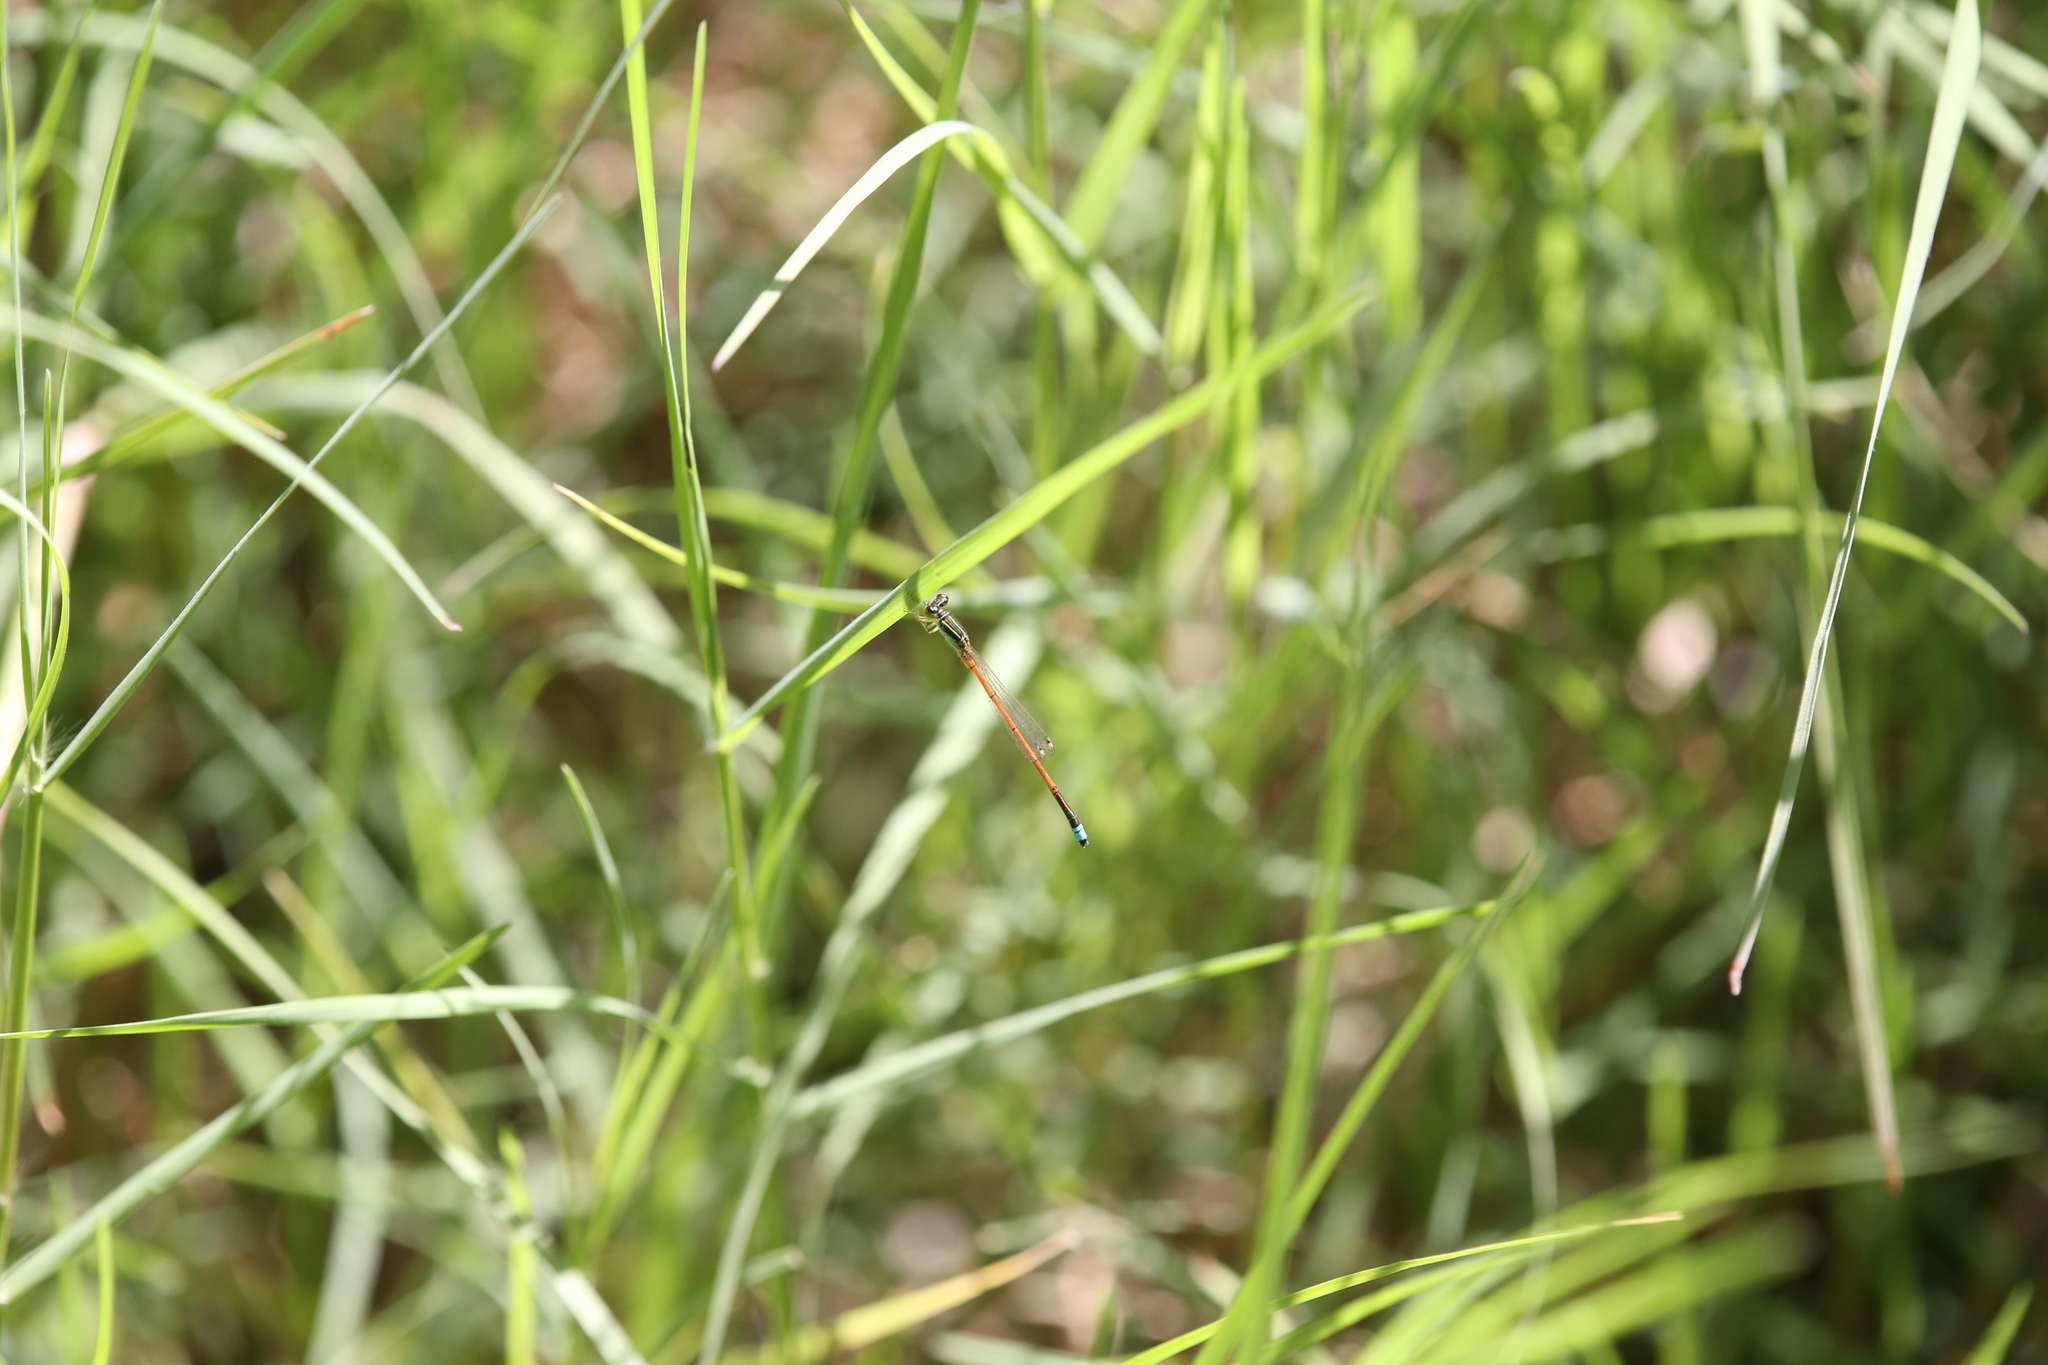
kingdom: Animalia
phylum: Arthropoda
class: Insecta
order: Odonata
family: Coenagrionidae
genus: Ischnura
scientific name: Ischnura aurora
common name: Gossamer damselfly
